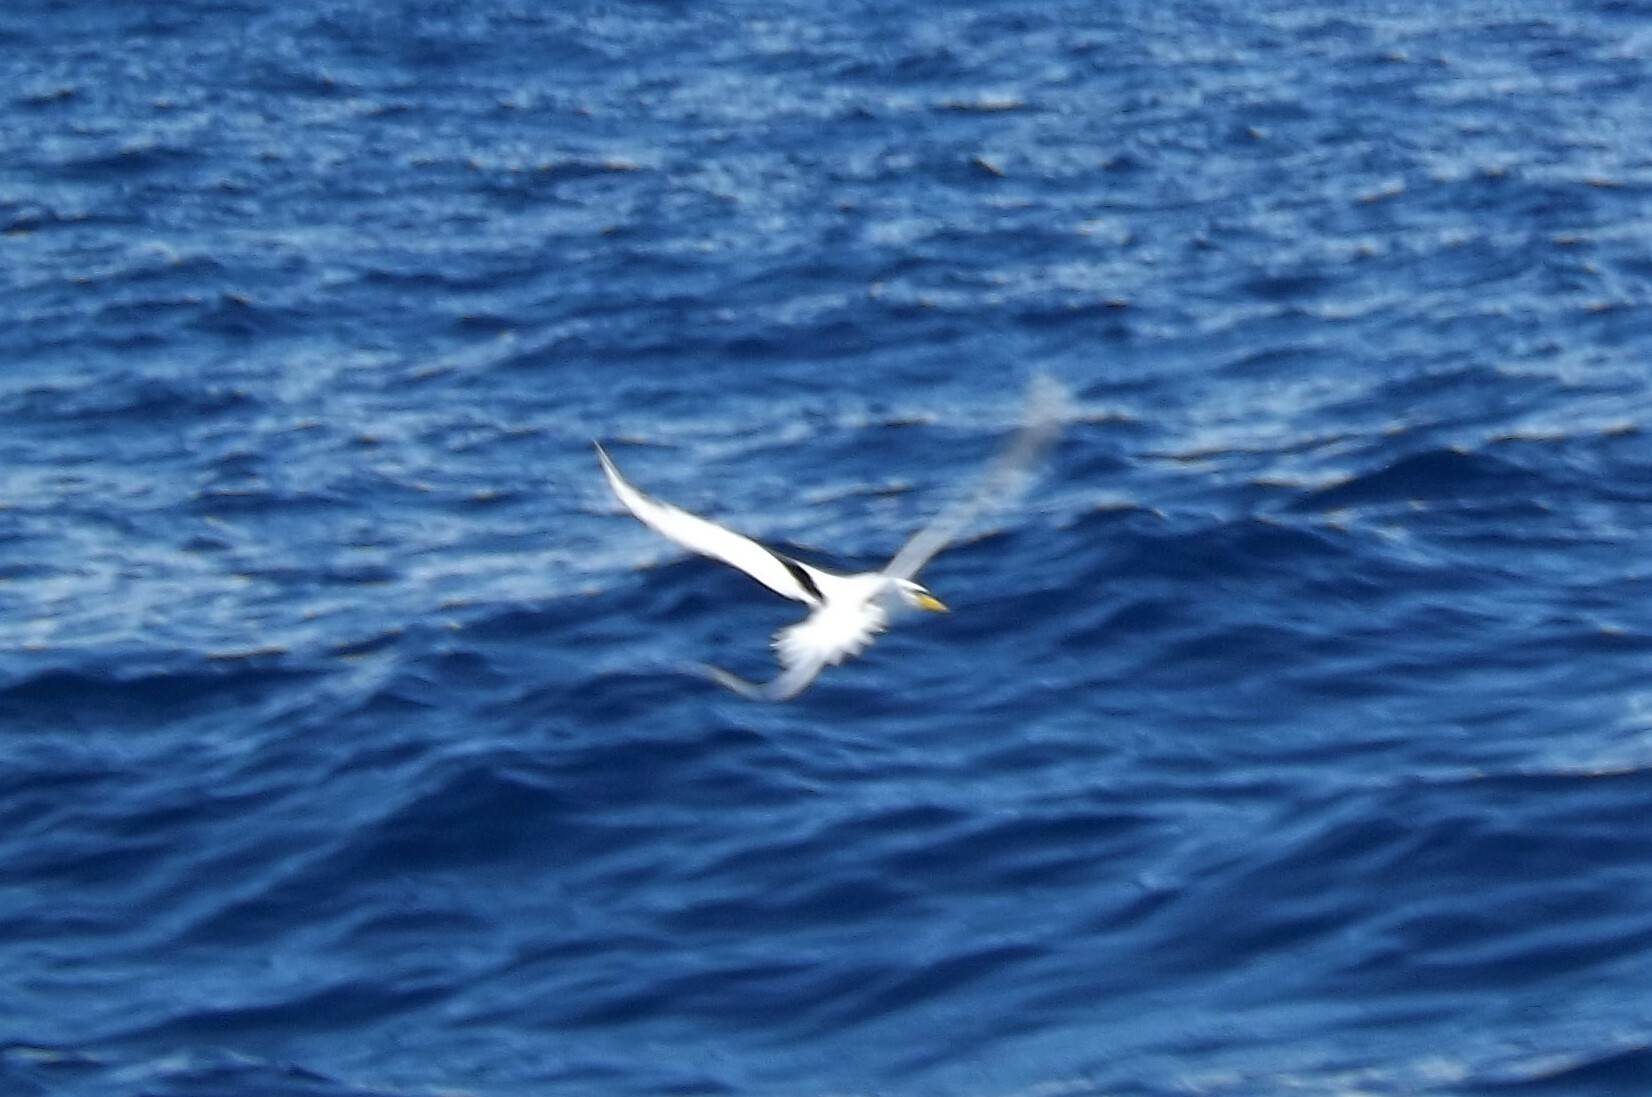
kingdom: Animalia
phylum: Chordata
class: Aves
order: Phaethontiformes
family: Phaethontidae
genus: Phaethon
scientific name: Phaethon lepturus
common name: White-tailed tropicbird
